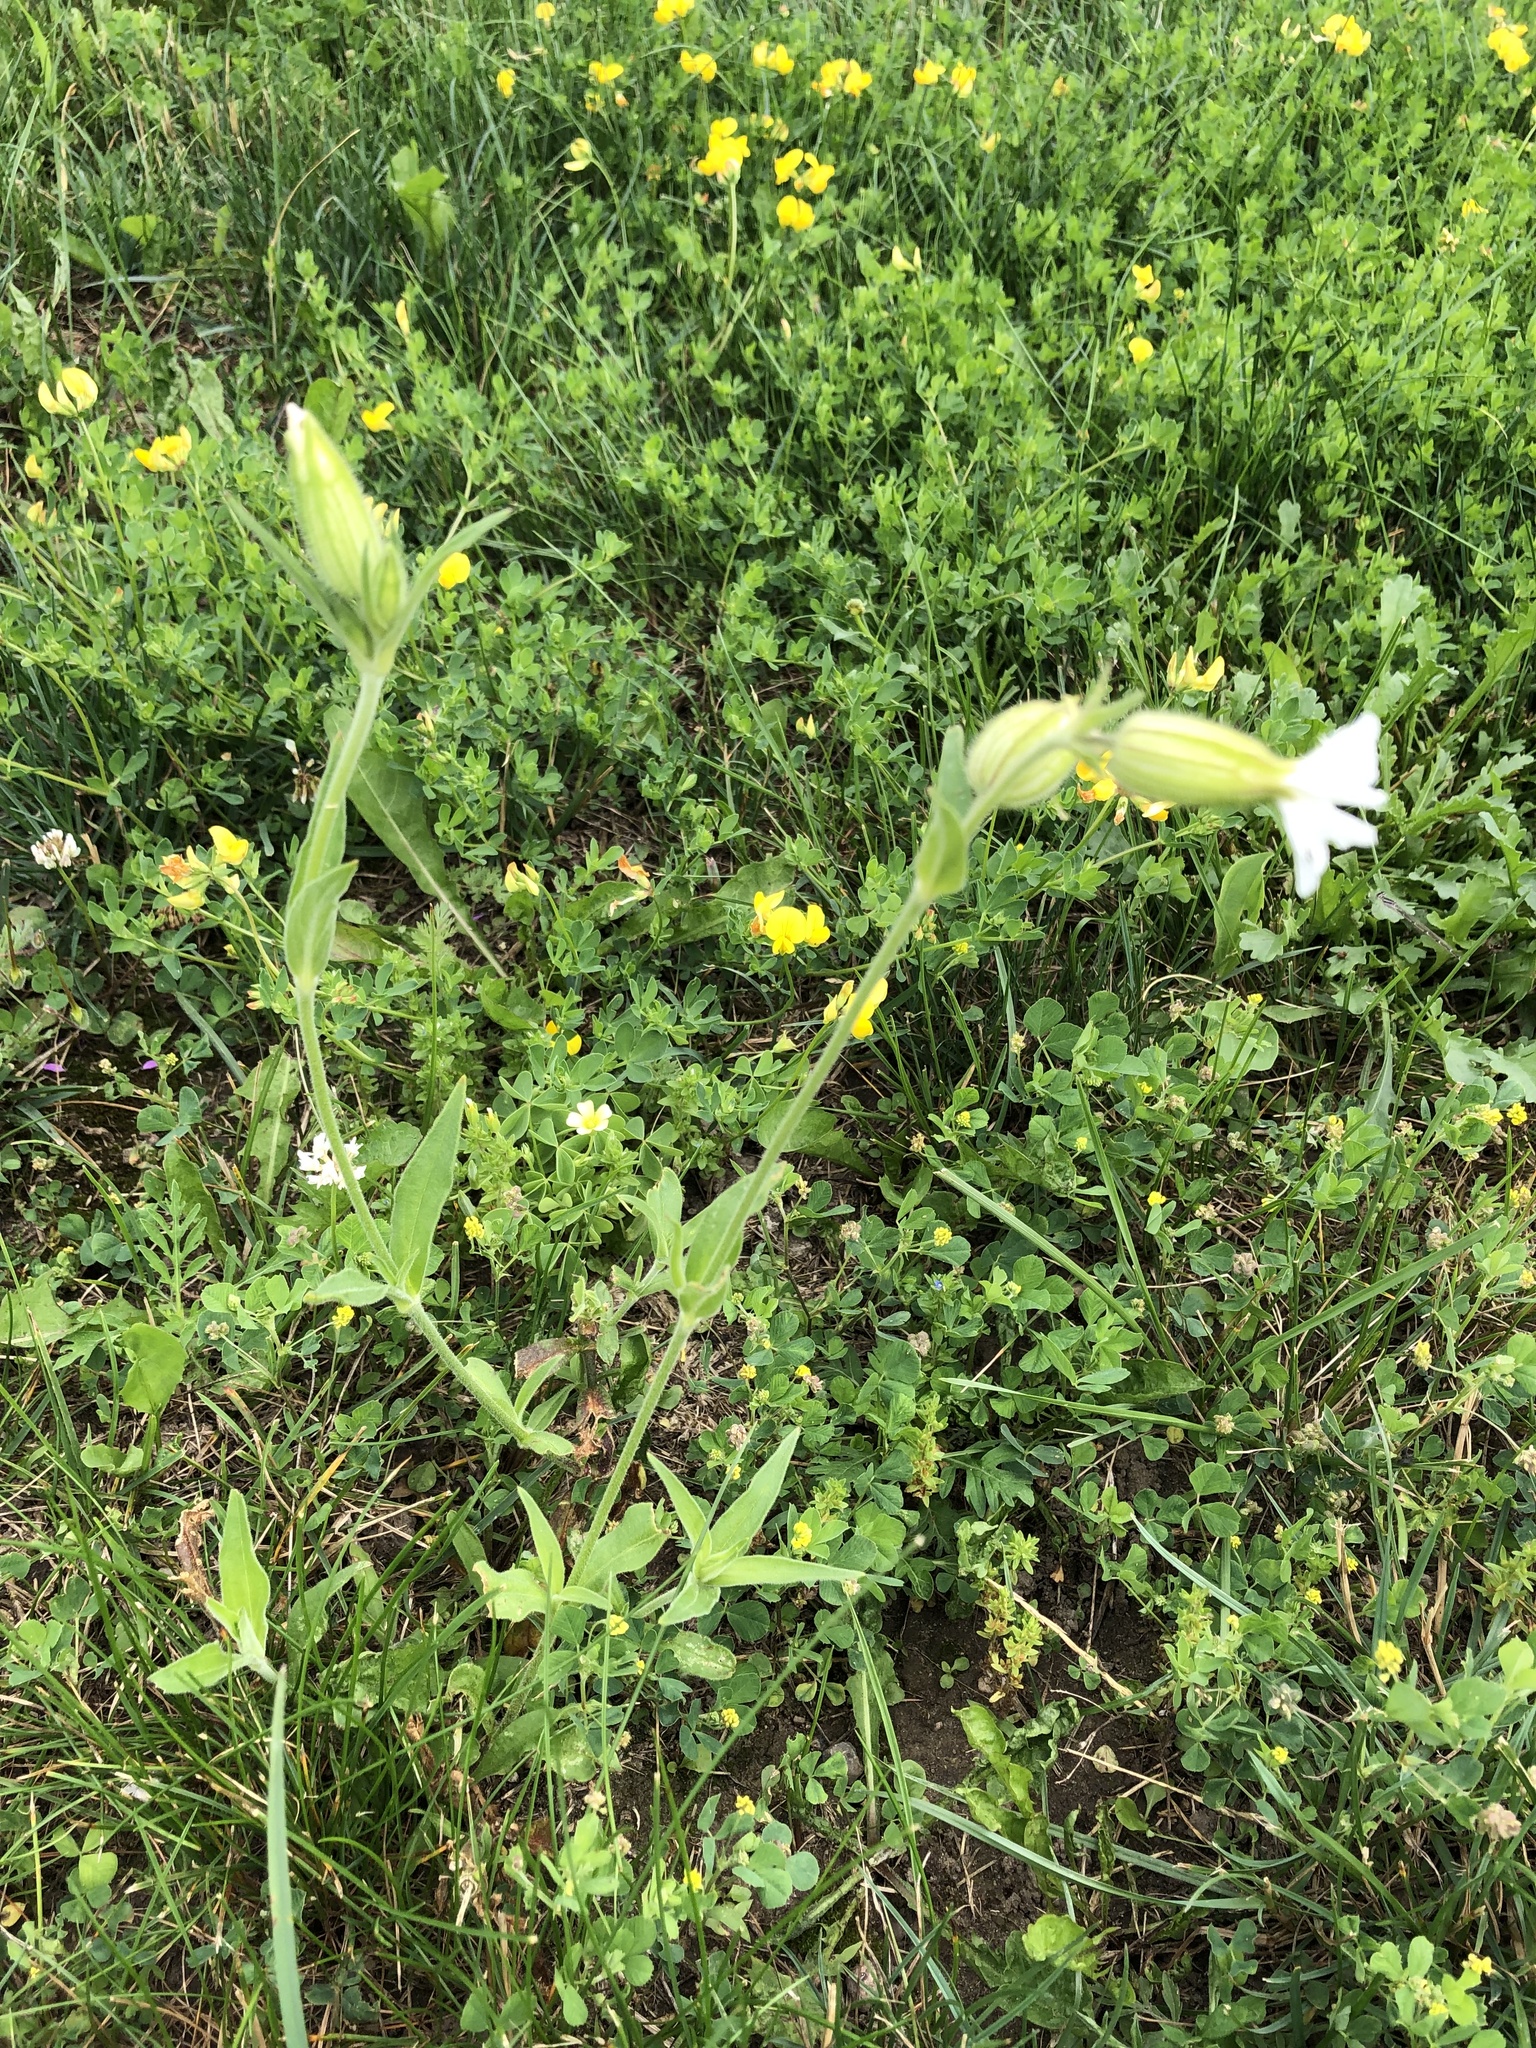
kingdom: Plantae
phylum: Tracheophyta
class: Magnoliopsida
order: Caryophyllales
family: Caryophyllaceae
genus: Silene
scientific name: Silene latifolia
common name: White campion
